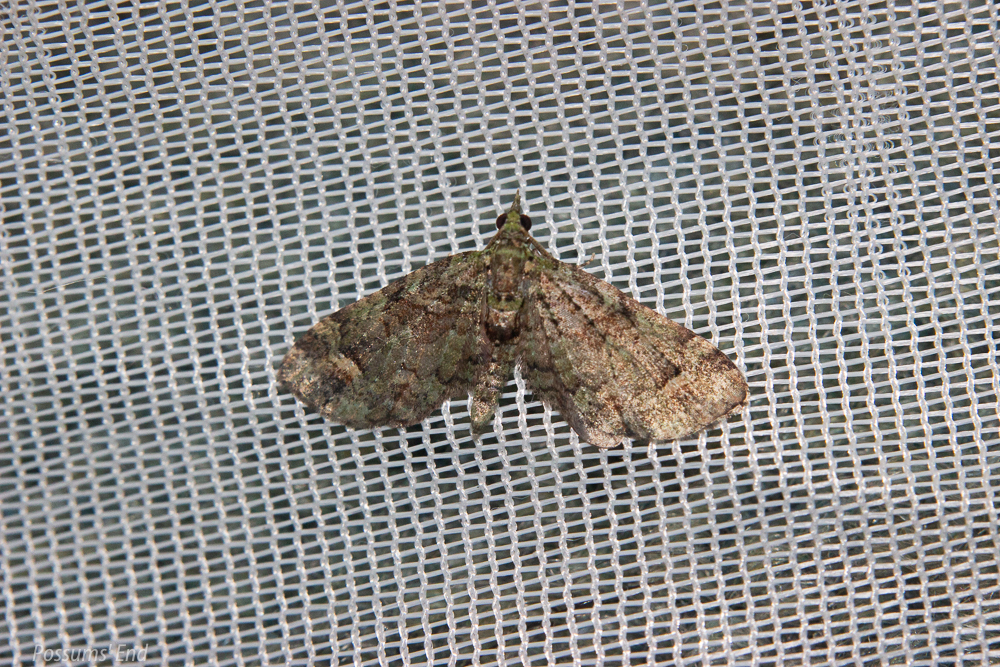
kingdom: Animalia
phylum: Arthropoda
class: Insecta
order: Lepidoptera
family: Geometridae
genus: Idaea
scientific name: Idaea mutanda
